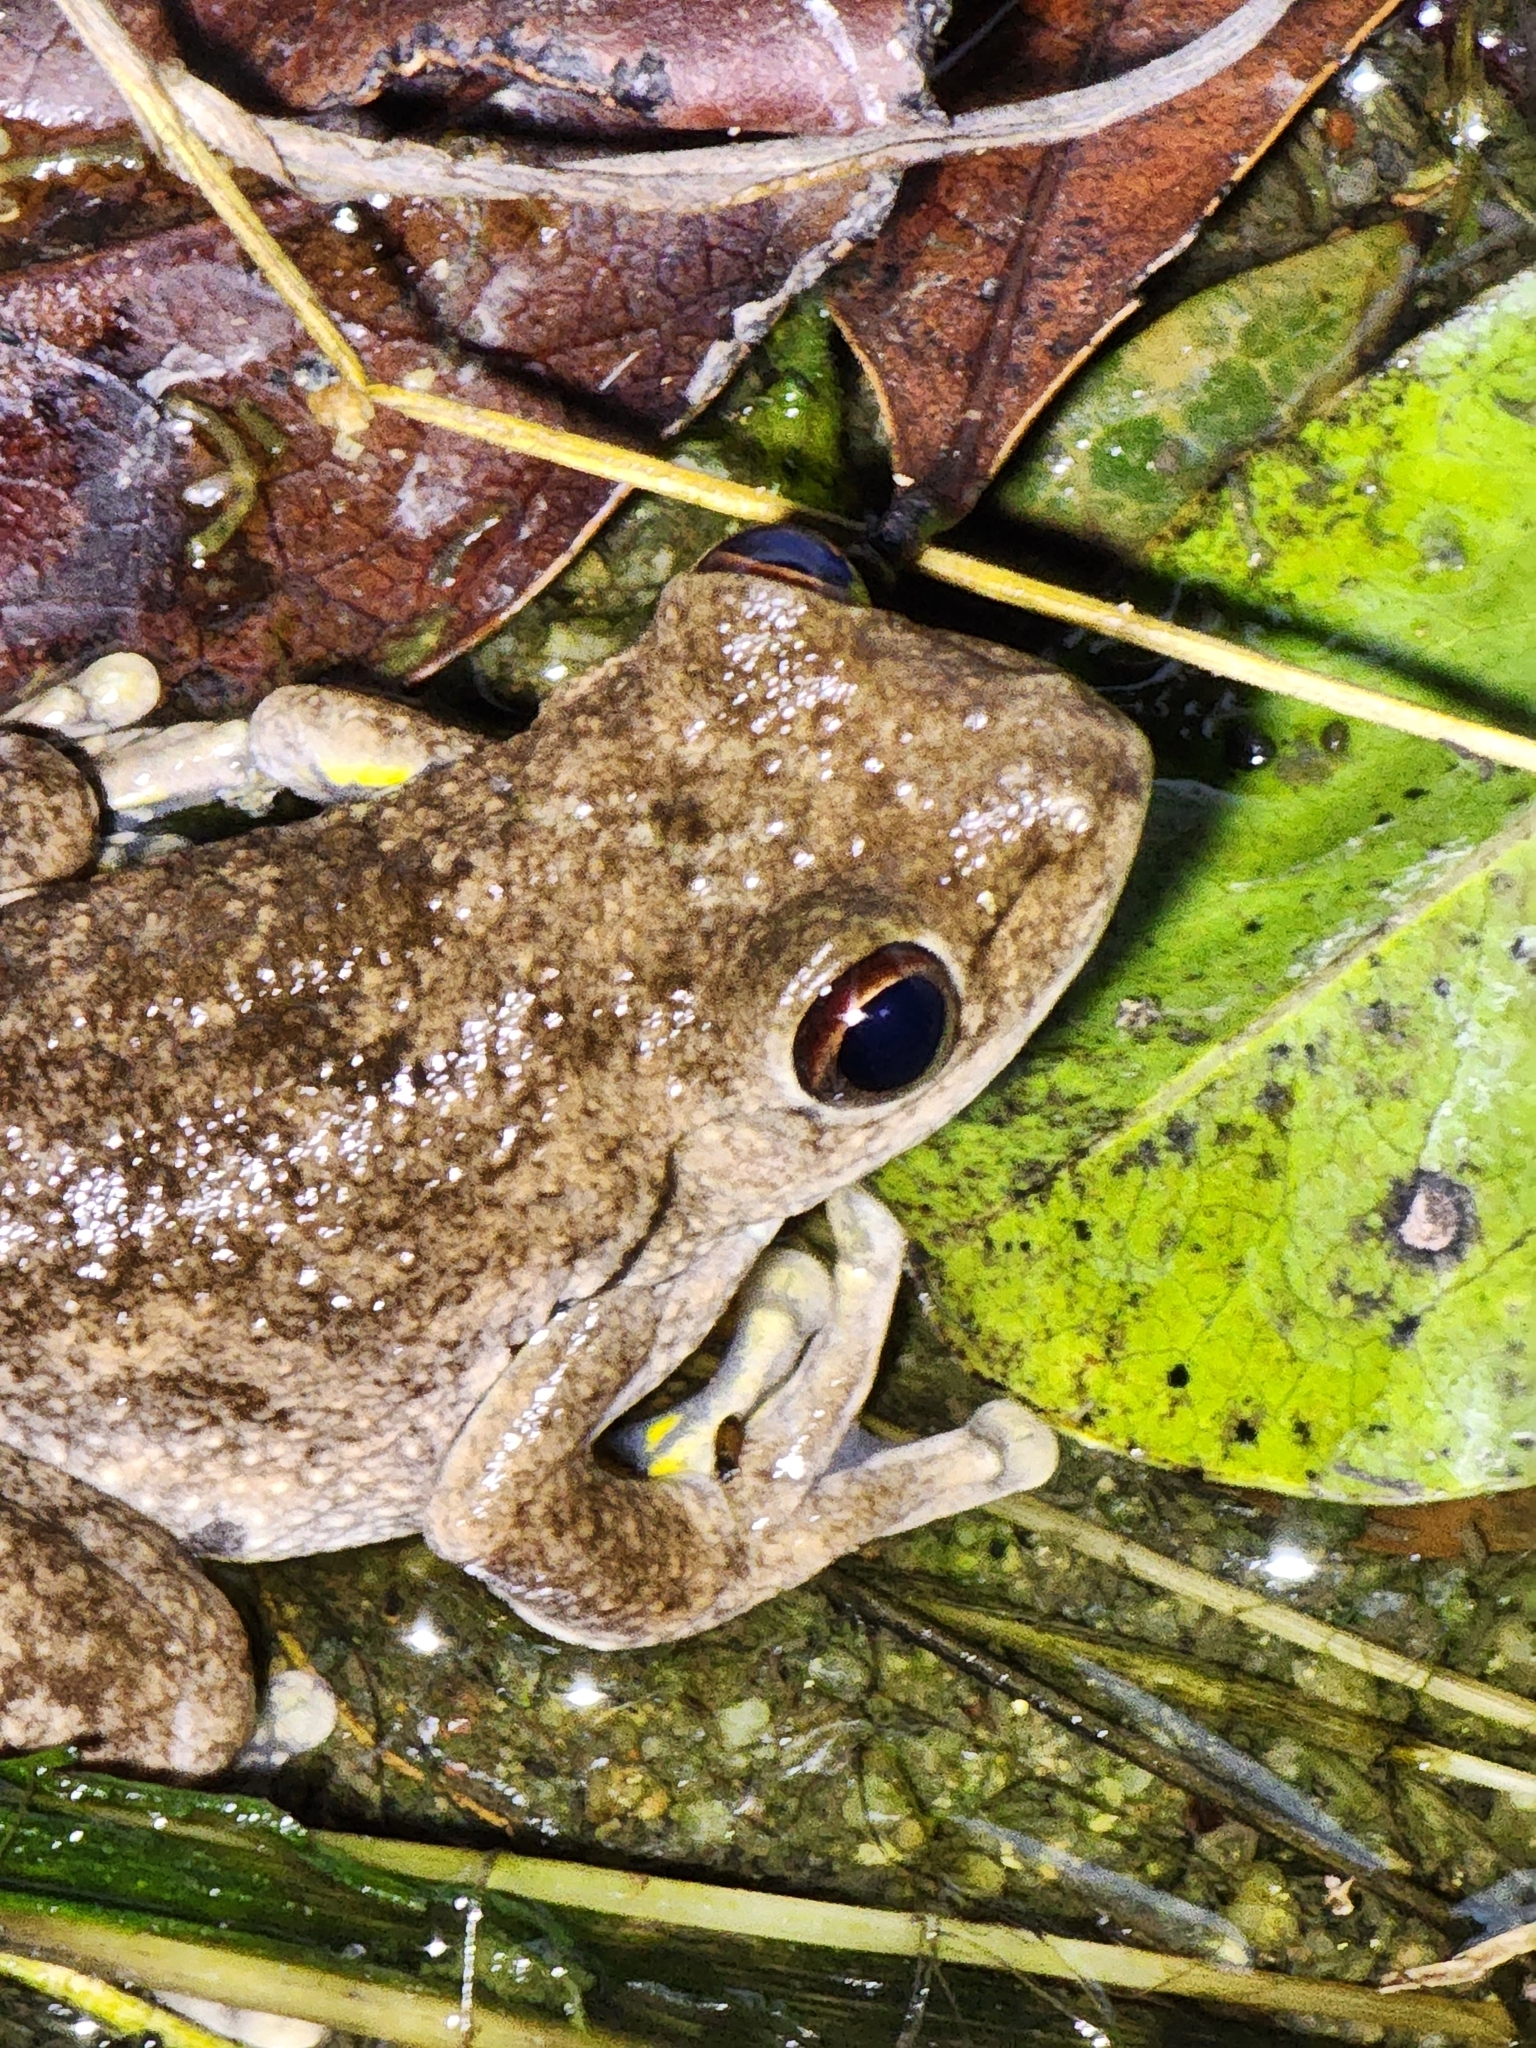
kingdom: Animalia
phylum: Chordata
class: Amphibia
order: Anura
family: Pelodryadidae
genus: Litoria
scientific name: Litoria rothii
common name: Roth’s tree frog
